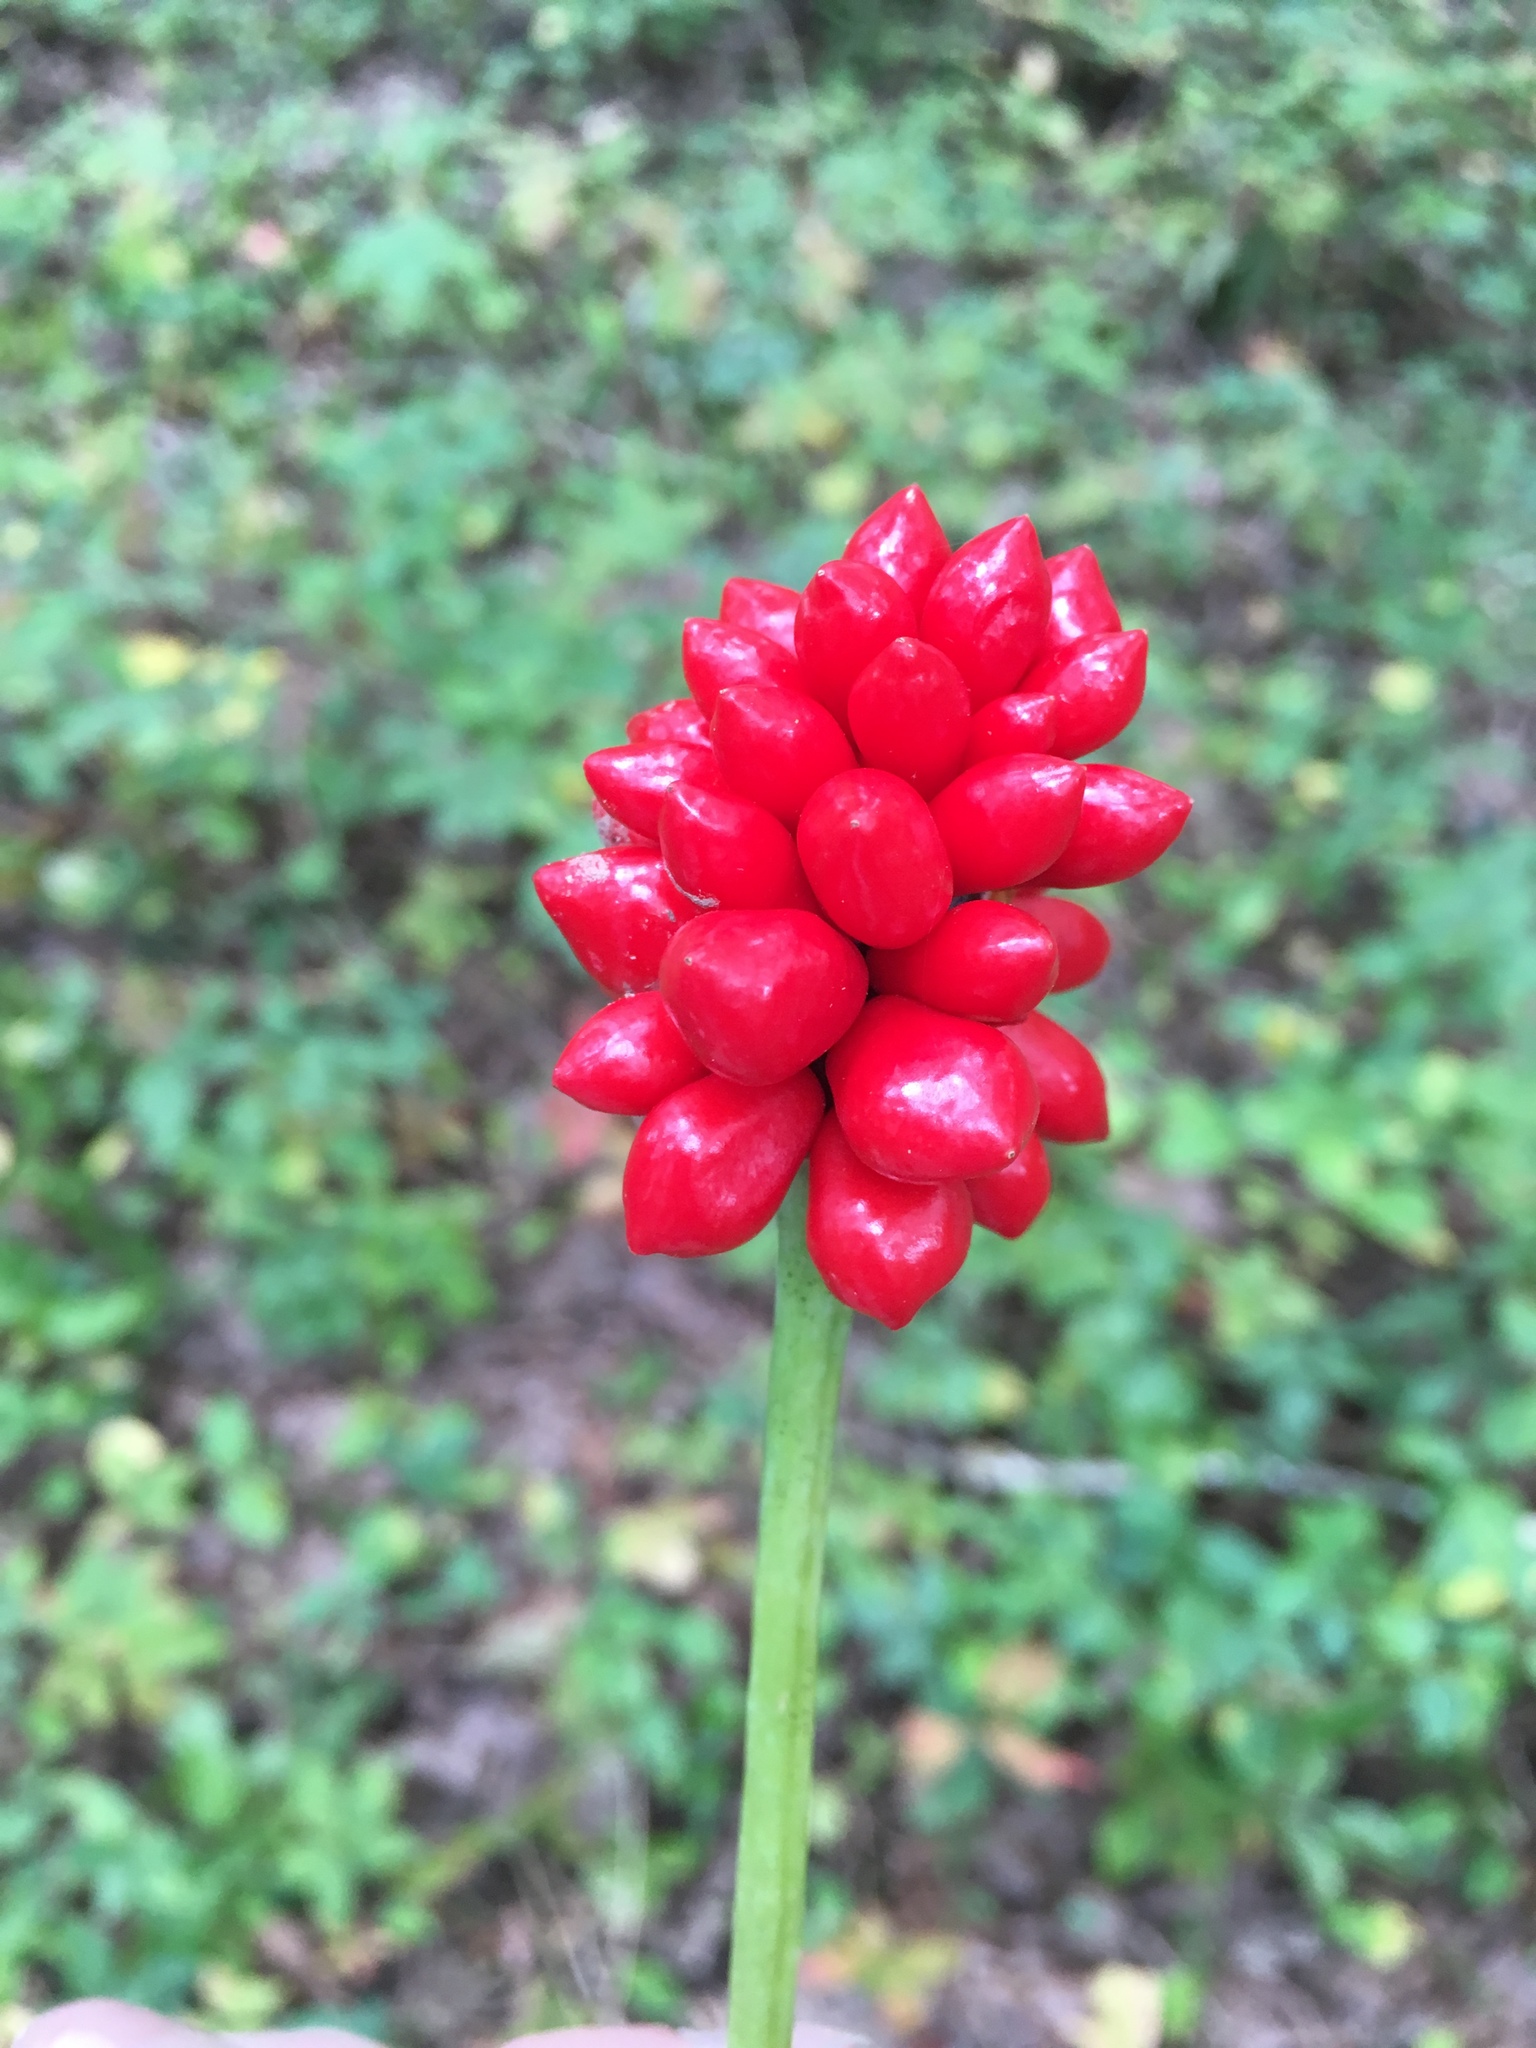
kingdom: Plantae
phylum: Tracheophyta
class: Liliopsida
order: Alismatales
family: Araceae
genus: Arisaema
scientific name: Arisaema triphyllum
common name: Jack-in-the-pulpit
